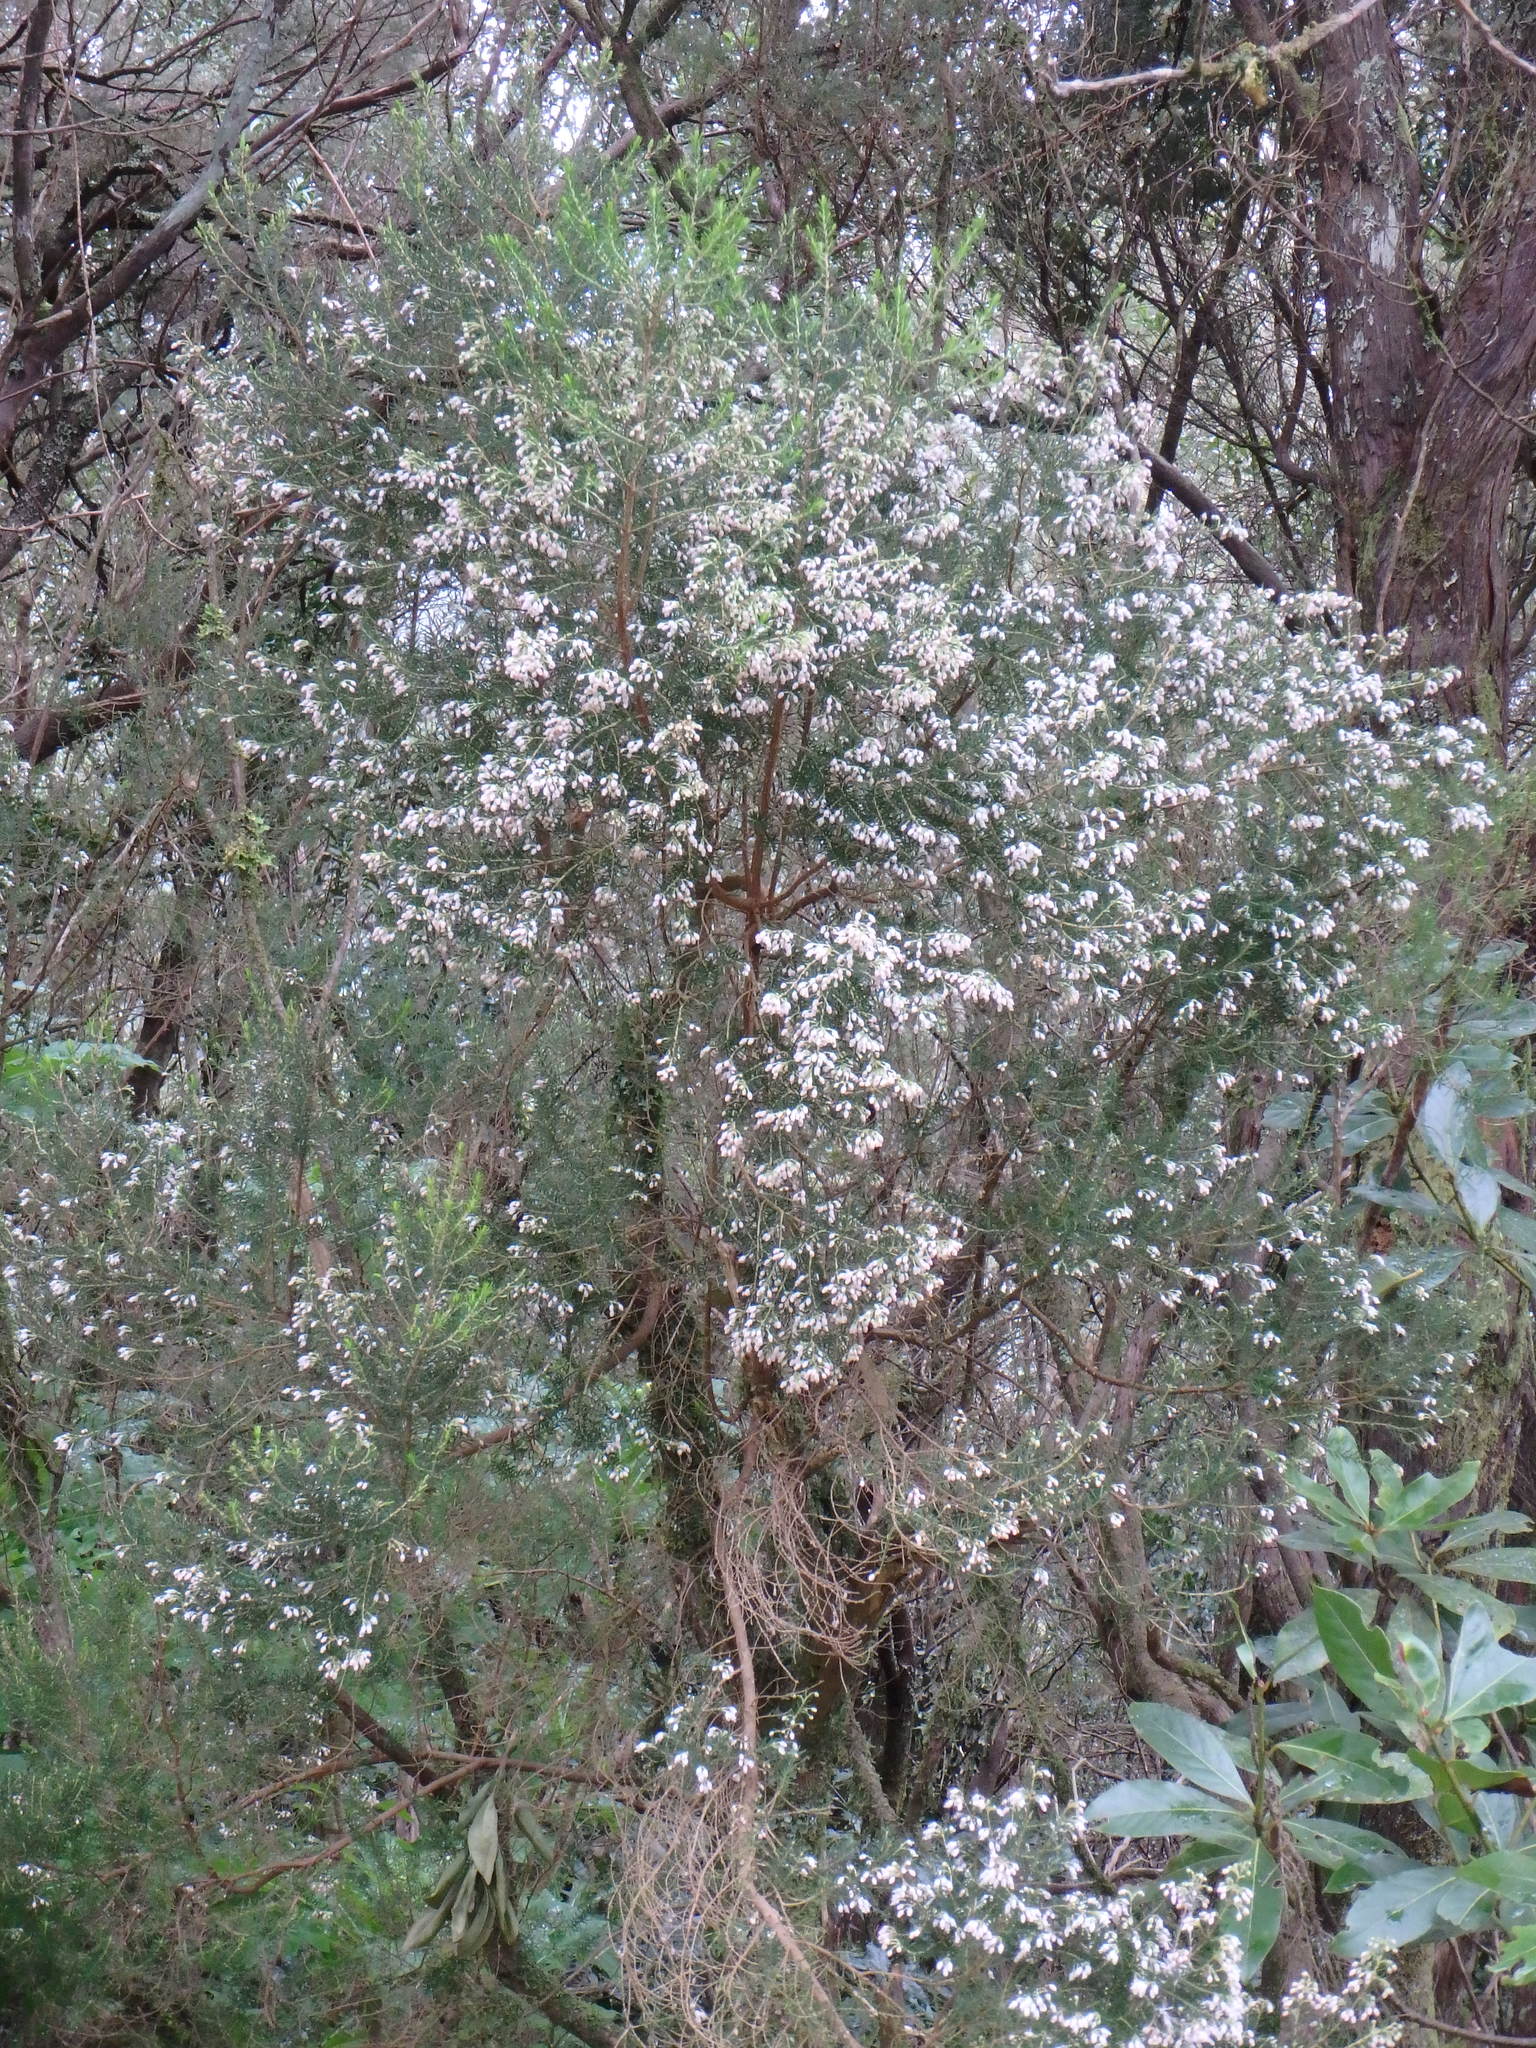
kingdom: Plantae
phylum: Tracheophyta
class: Magnoliopsida
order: Ericales
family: Ericaceae
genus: Erica
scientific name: Erica canariensis
